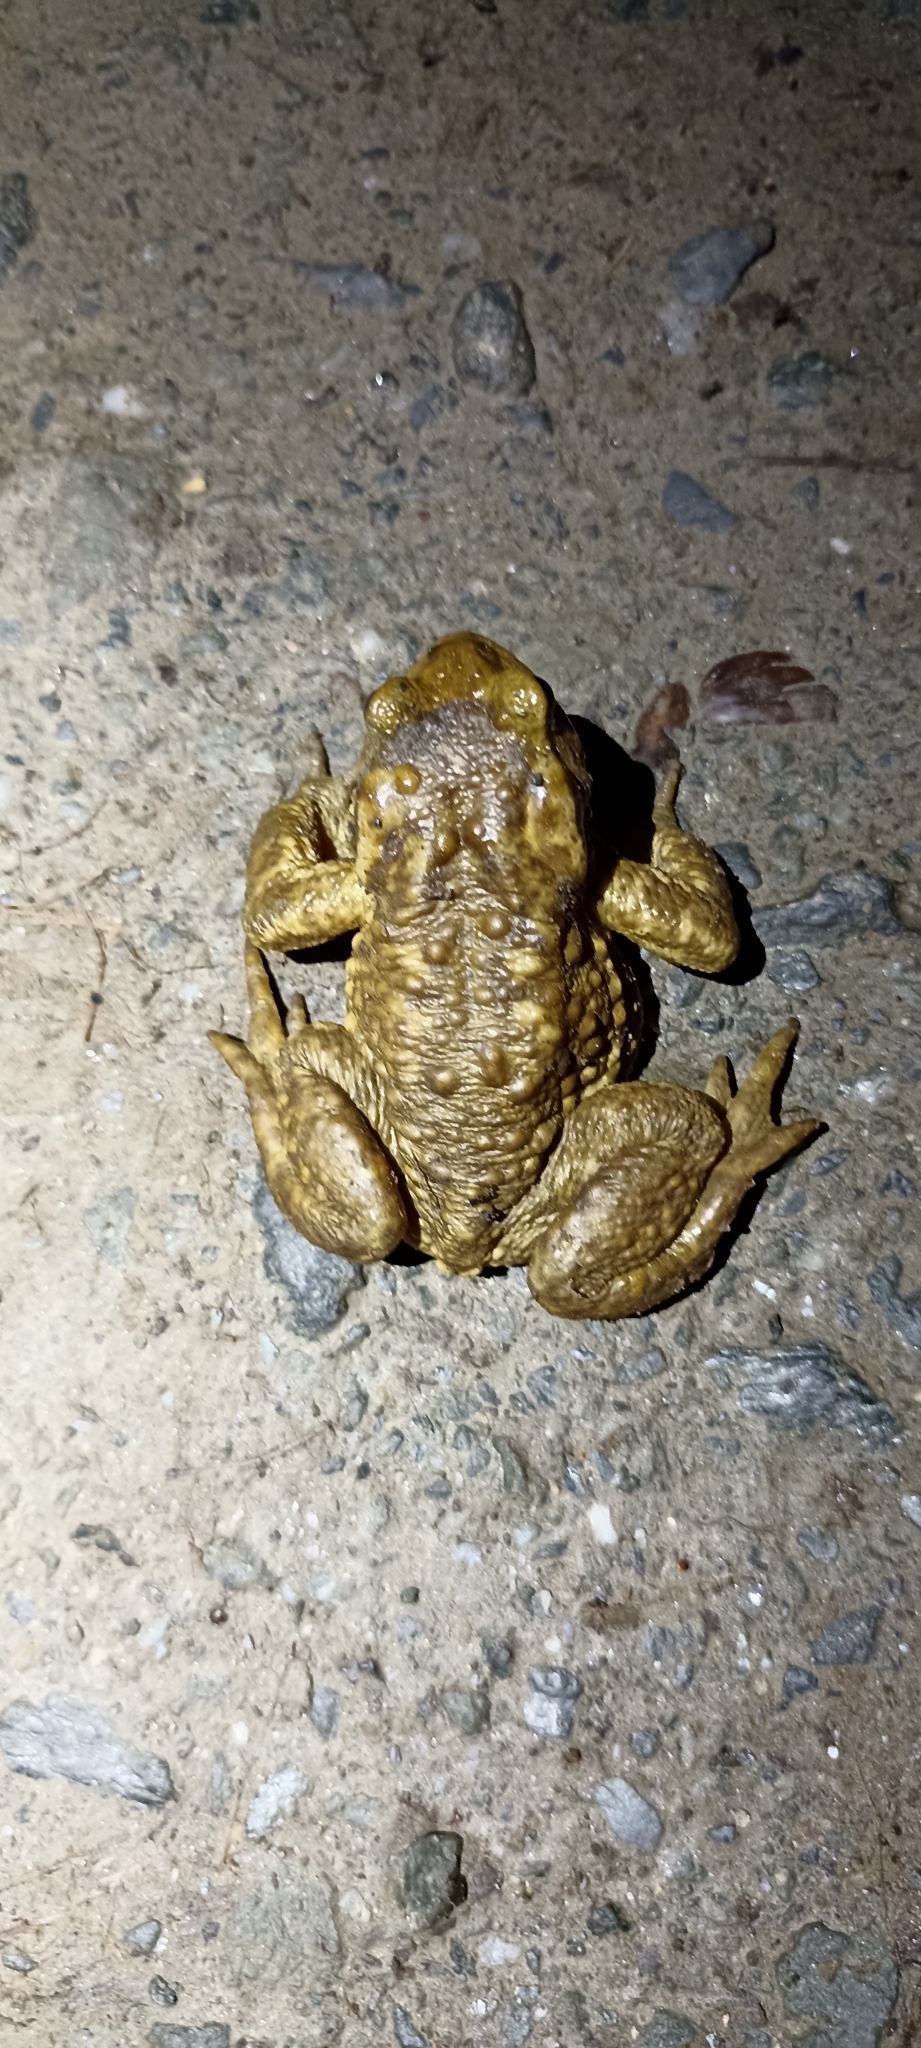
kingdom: Animalia
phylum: Chordata
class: Amphibia
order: Anura
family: Bufonidae
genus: Bufo
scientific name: Bufo spinosus
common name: Western common toad
